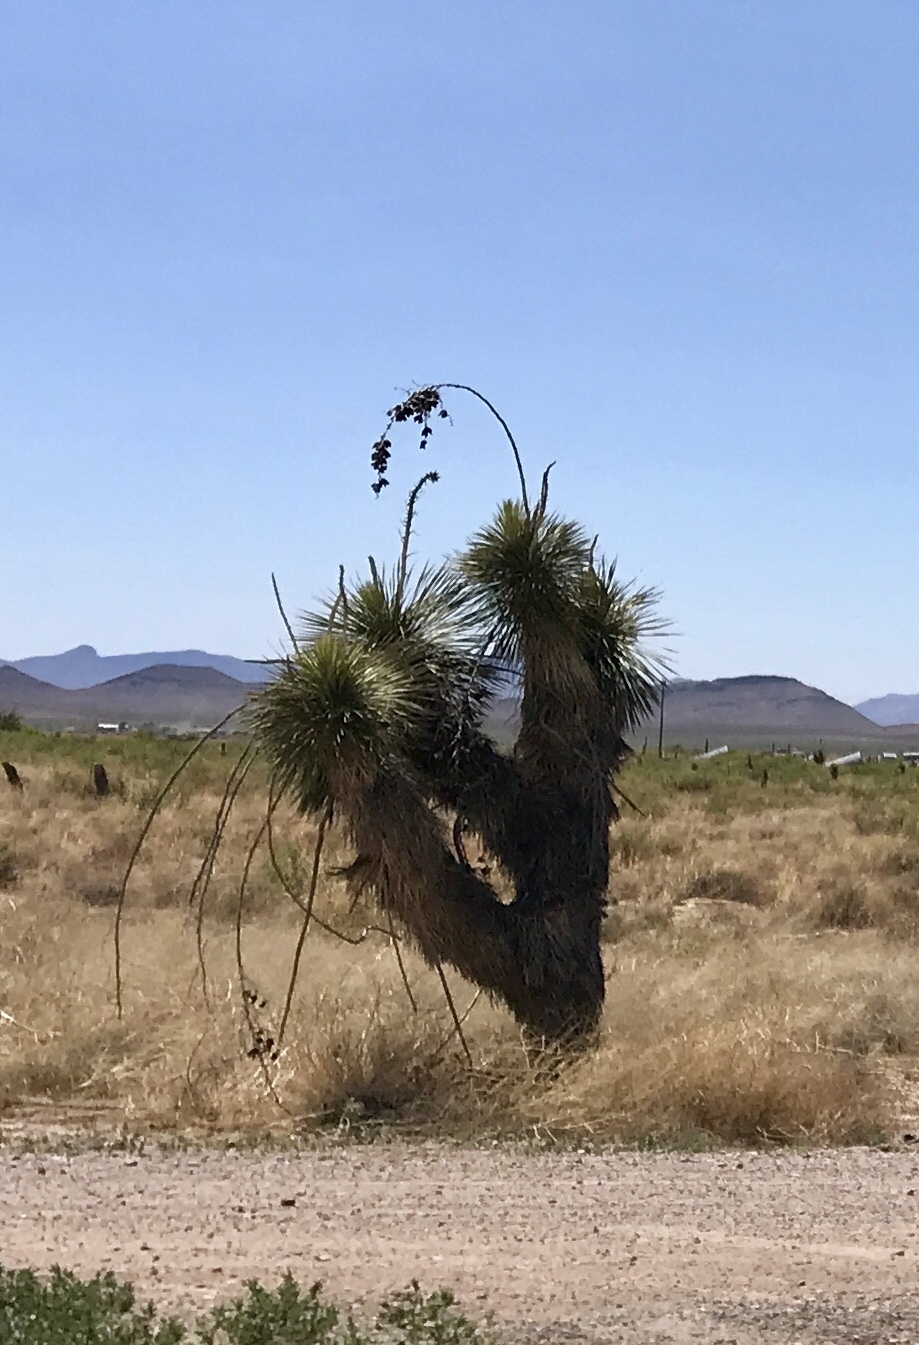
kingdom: Plantae
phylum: Tracheophyta
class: Liliopsida
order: Asparagales
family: Asparagaceae
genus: Yucca
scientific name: Yucca elata
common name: Palmella
